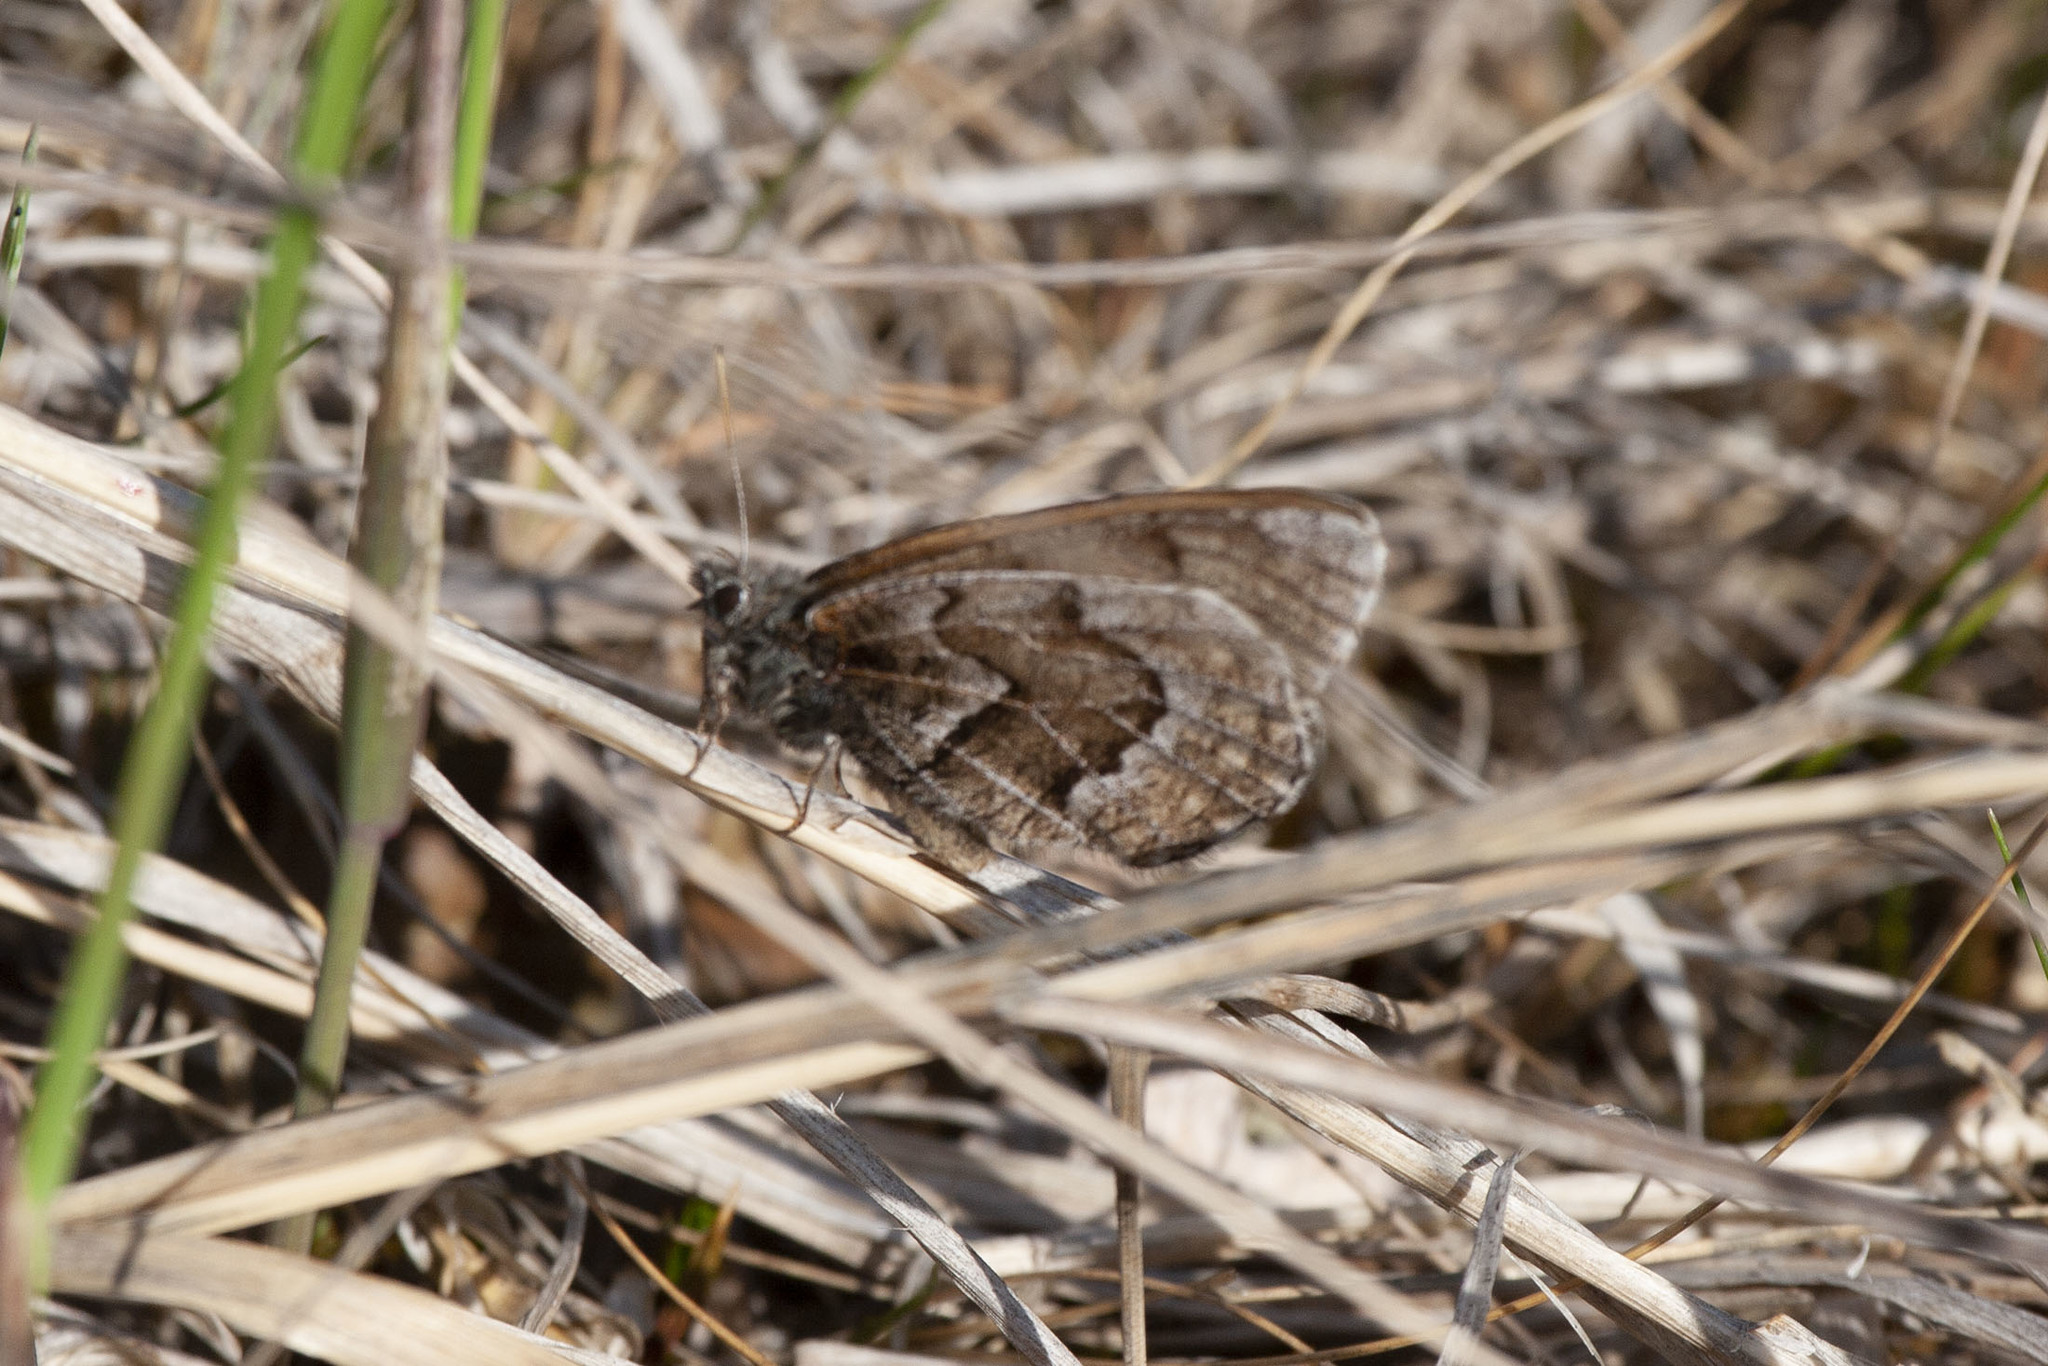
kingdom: Animalia
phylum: Arthropoda
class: Insecta
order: Lepidoptera
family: Nymphalidae
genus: Oeneis
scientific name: Oeneis bore
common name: Arctic grayling
